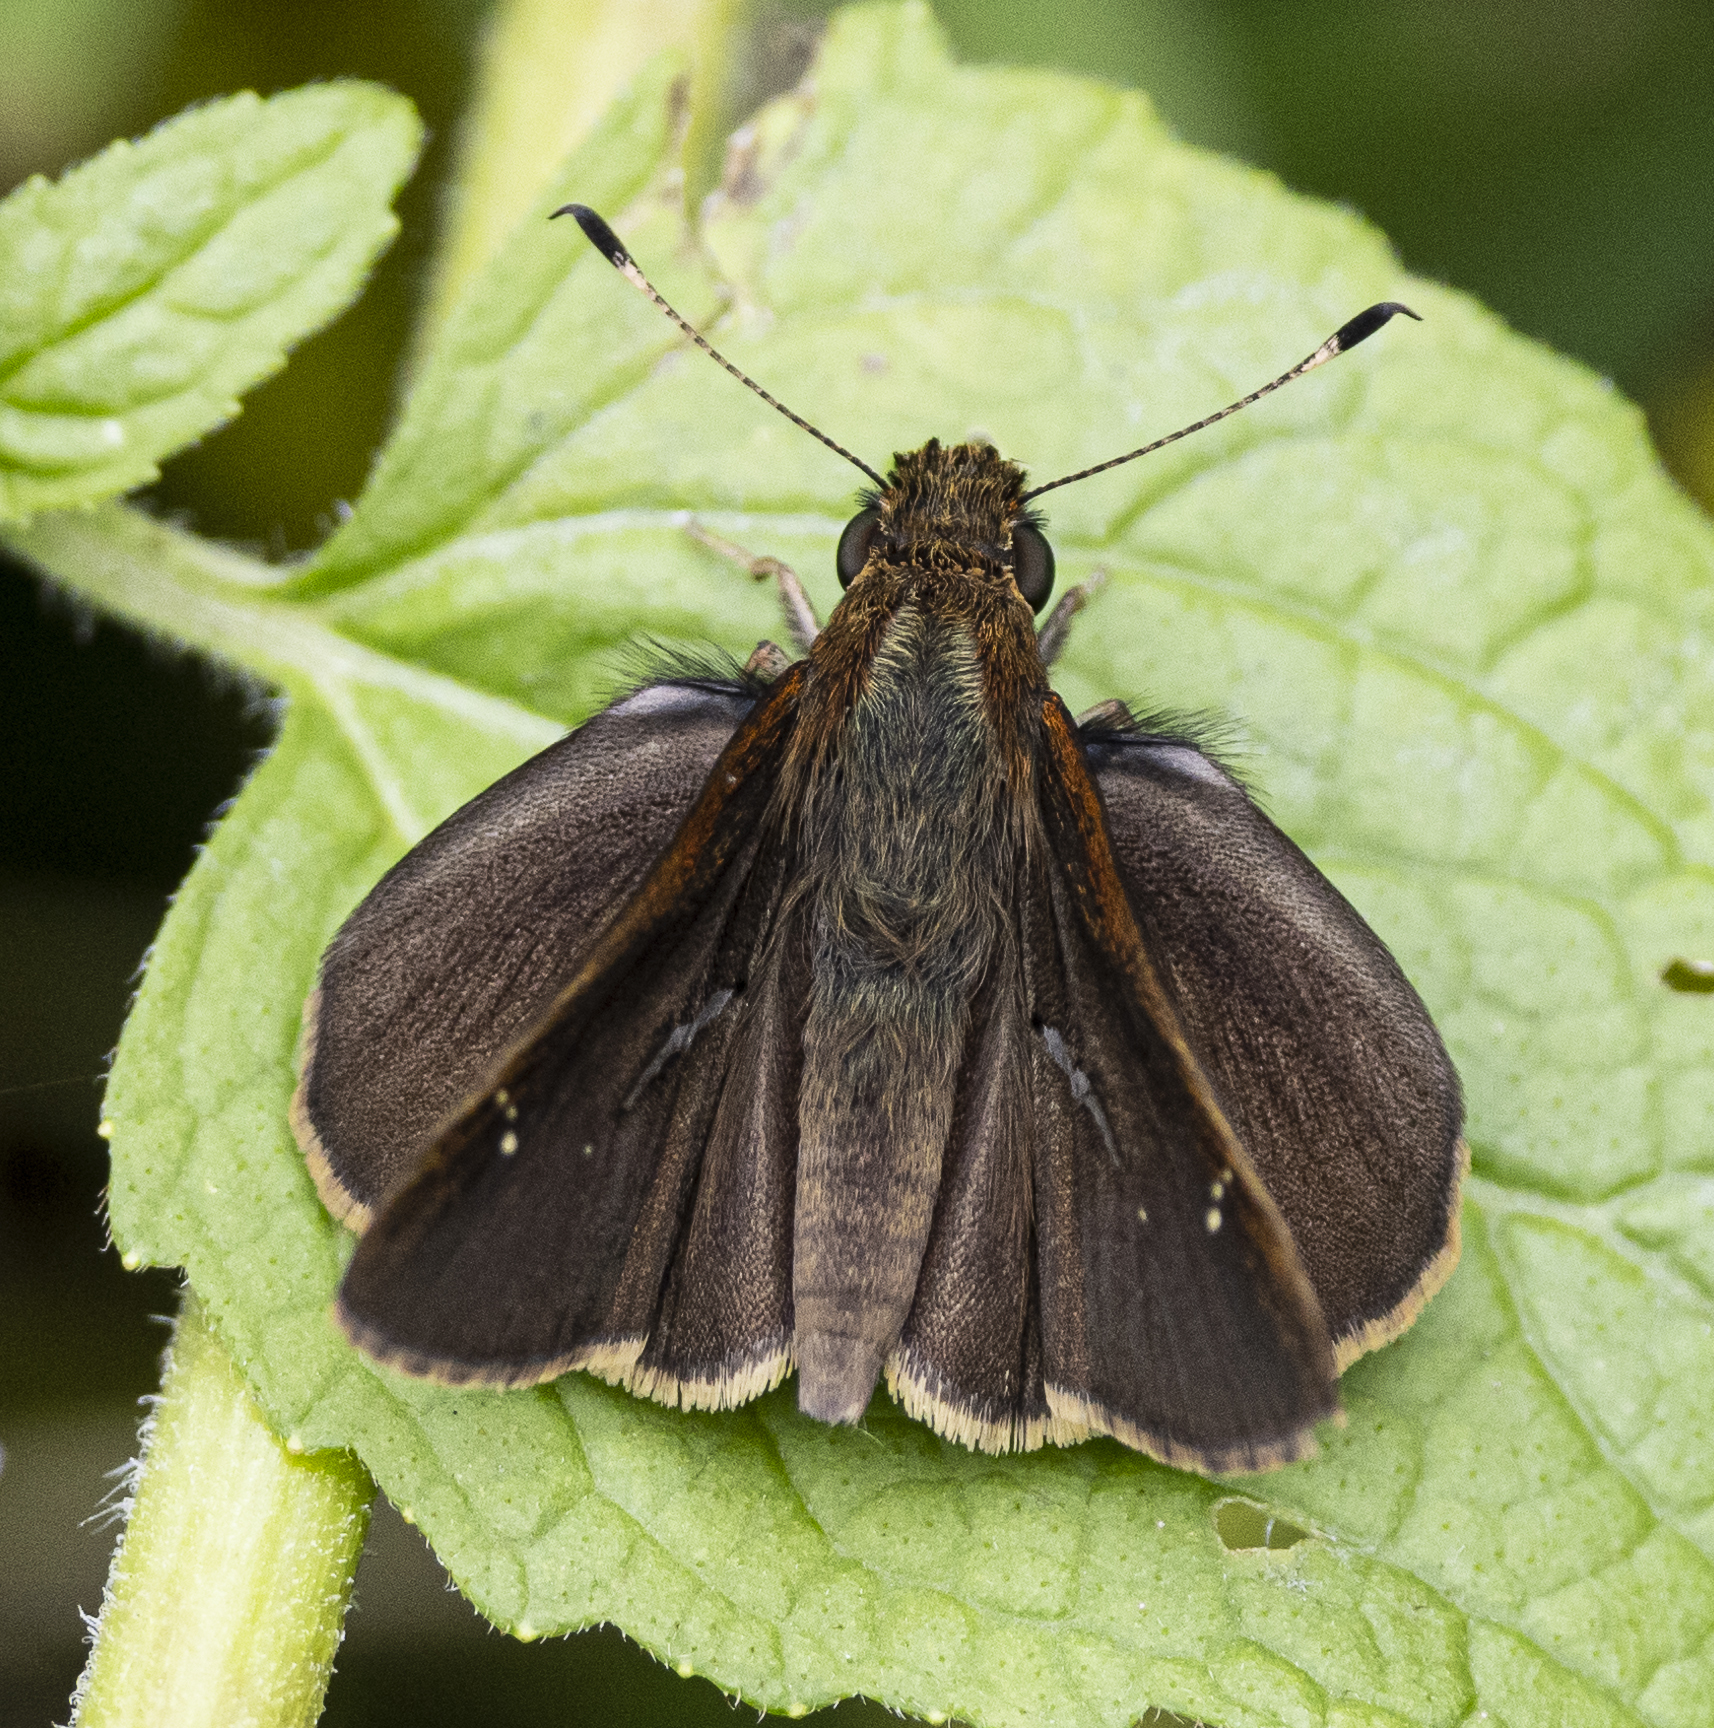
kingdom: Animalia
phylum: Arthropoda
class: Insecta
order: Lepidoptera
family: Hesperiidae
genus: Lerema
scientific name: Lerema accius
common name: Clouded skipper
